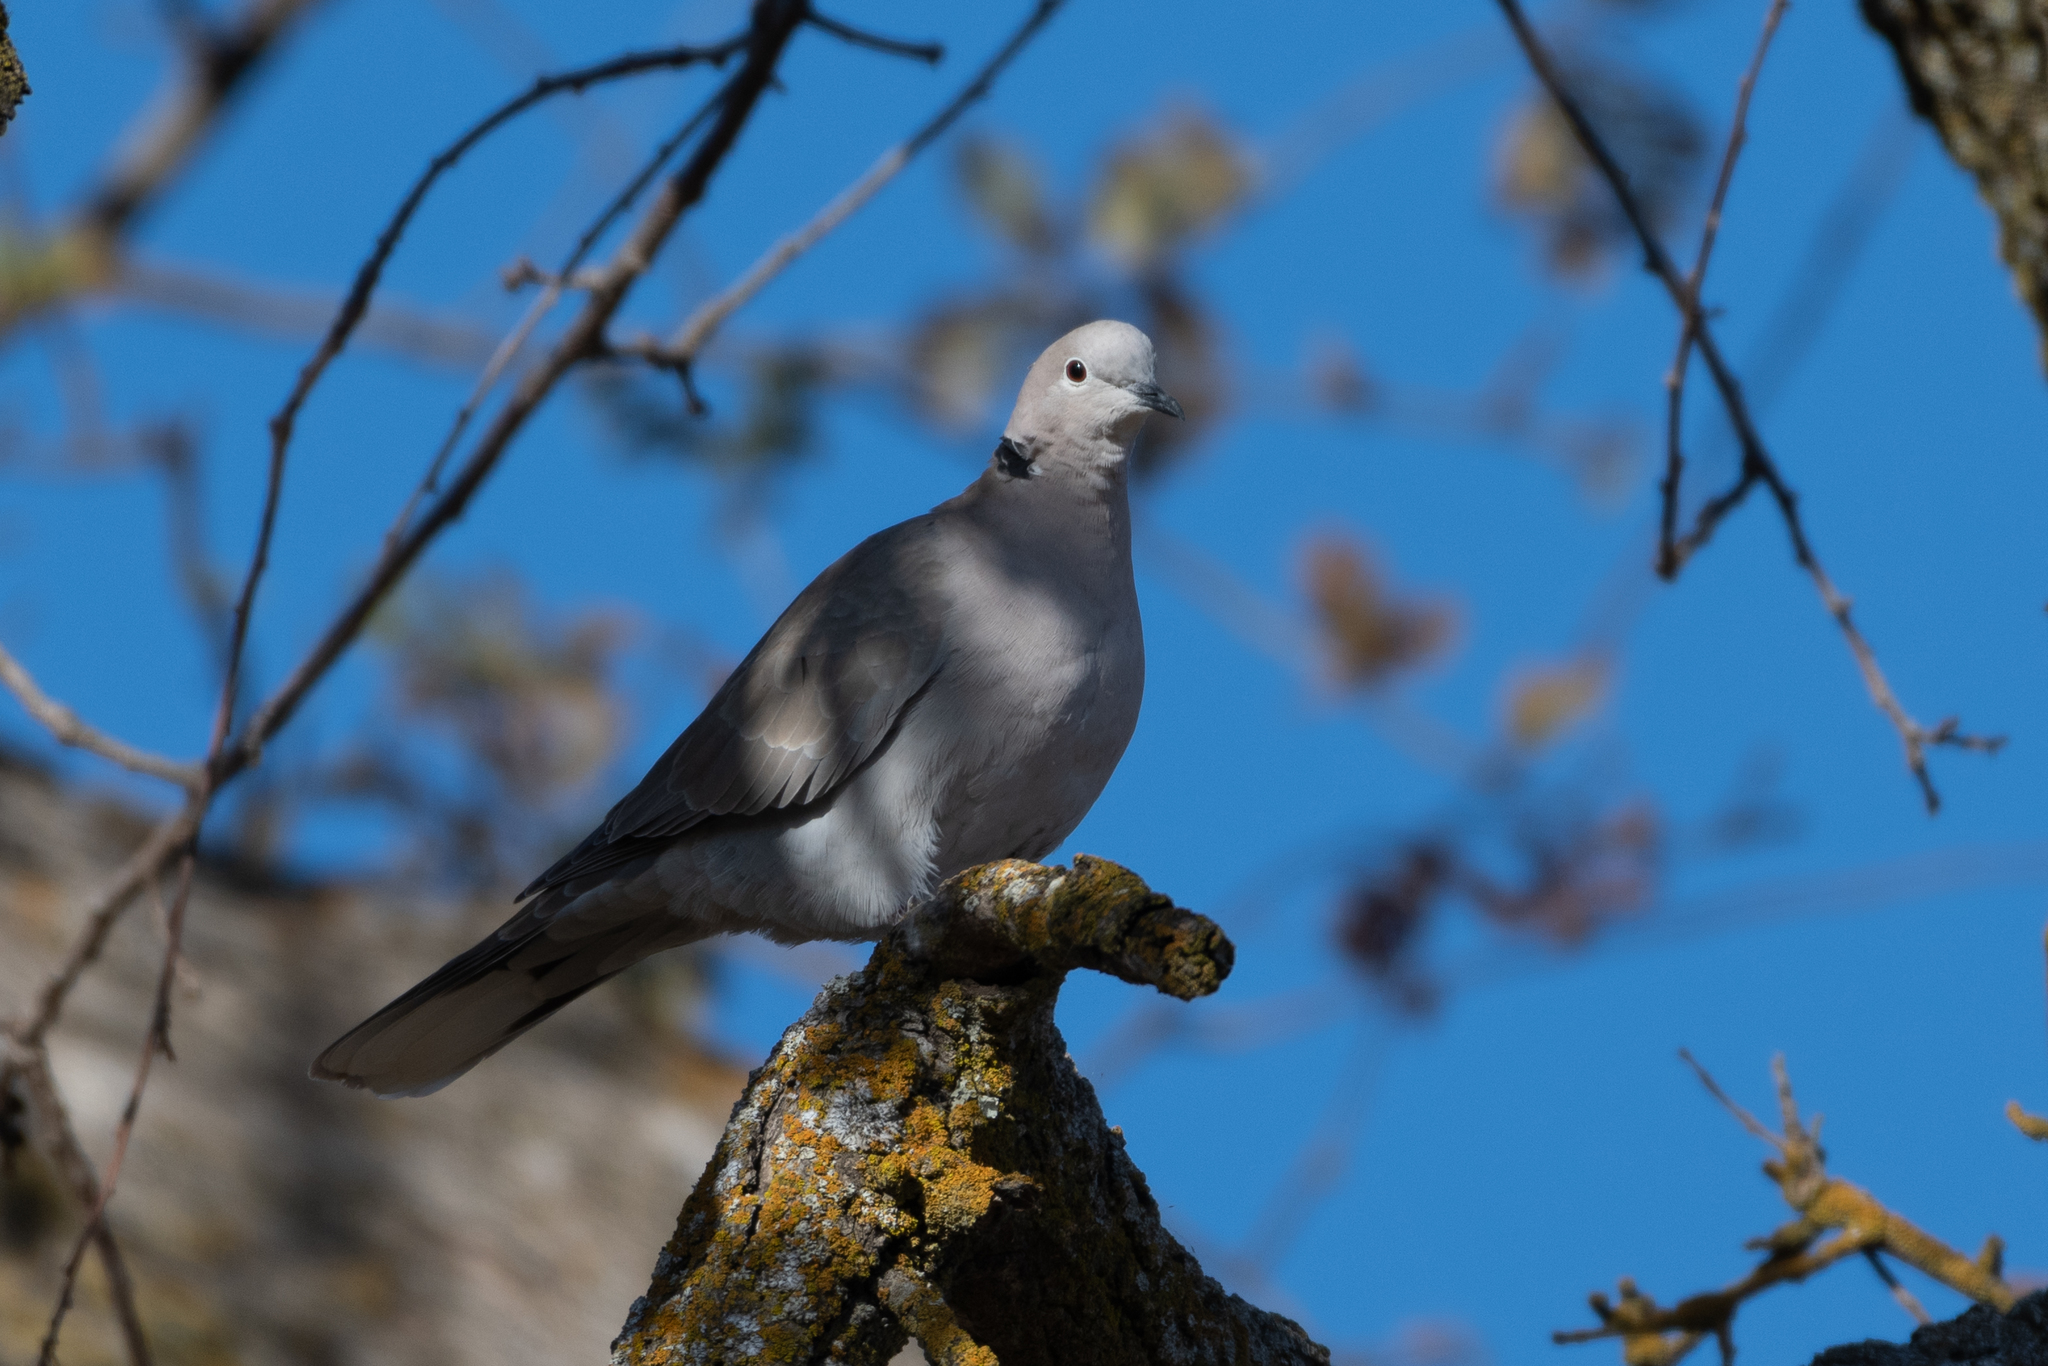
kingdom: Animalia
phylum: Chordata
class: Aves
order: Columbiformes
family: Columbidae
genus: Streptopelia
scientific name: Streptopelia decaocto
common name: Eurasian collared dove
